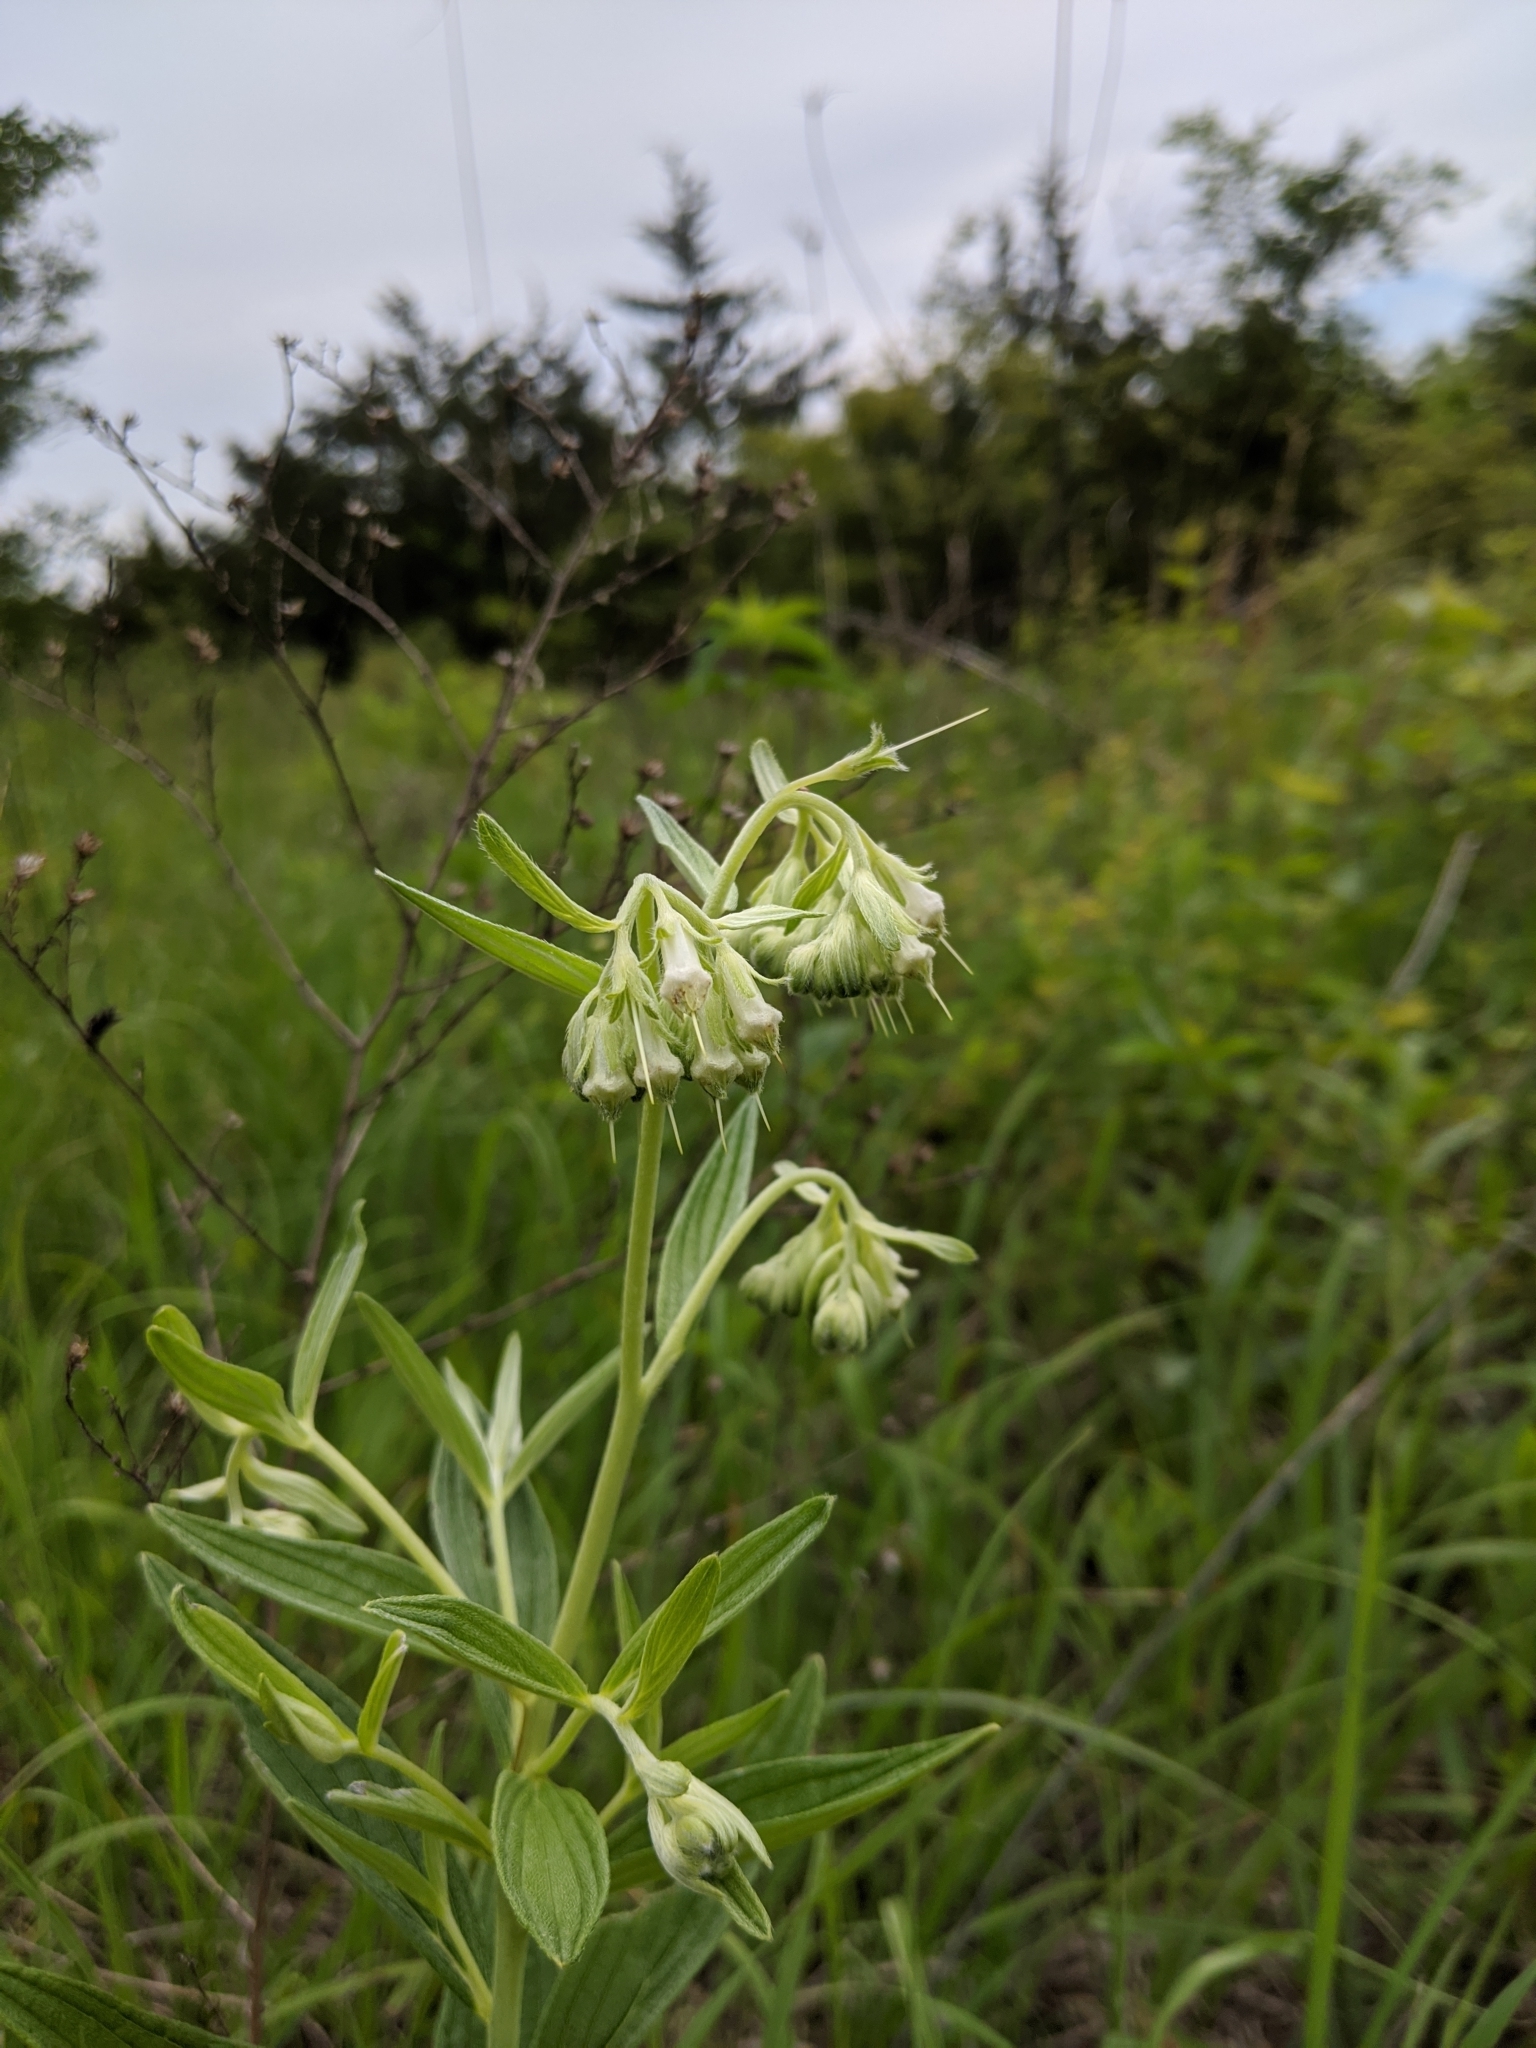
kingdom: Plantae
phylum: Tracheophyta
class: Magnoliopsida
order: Boraginales
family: Boraginaceae
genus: Lithospermum
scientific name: Lithospermum subsetosum
